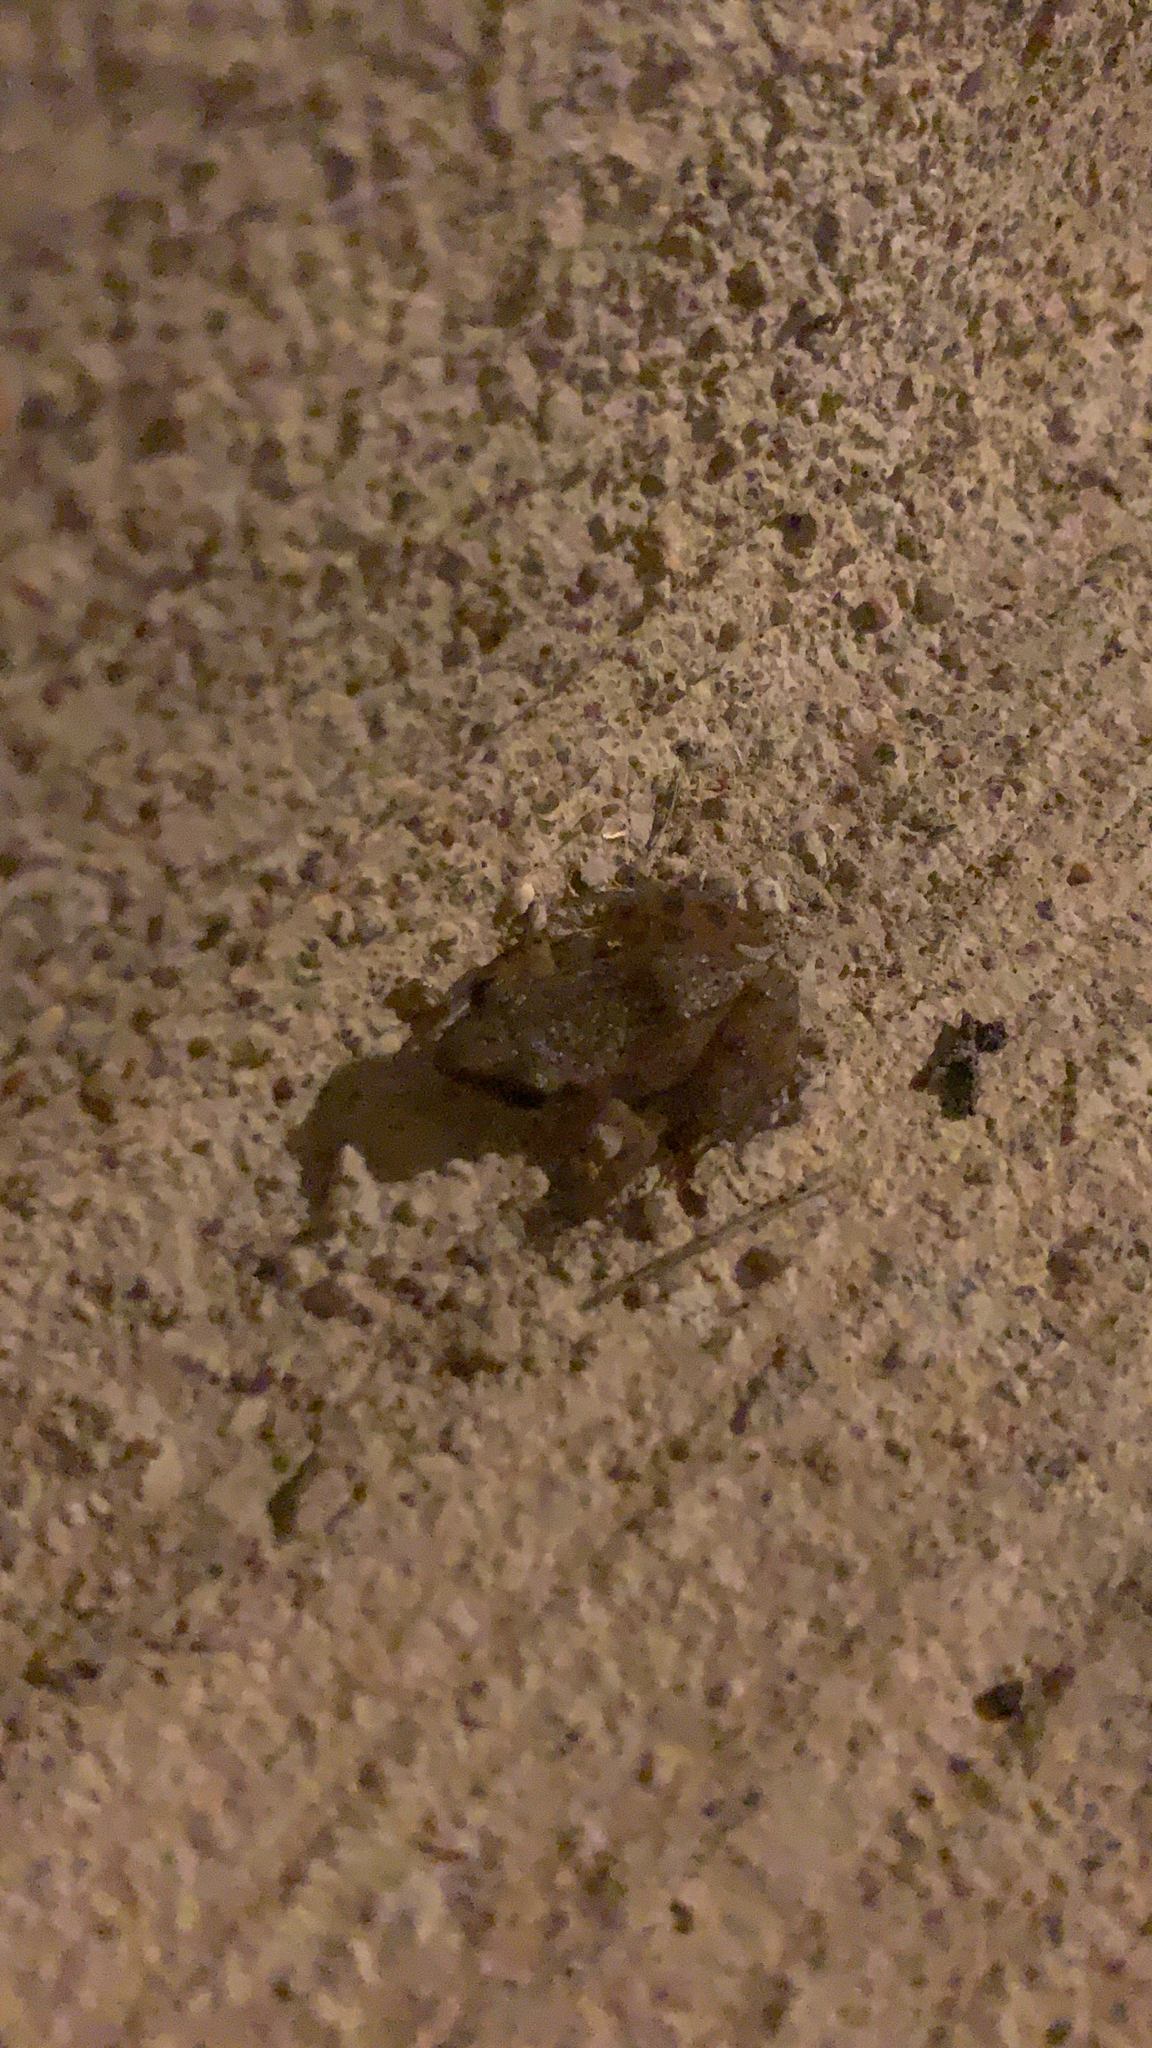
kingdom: Animalia
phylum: Chordata
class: Amphibia
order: Anura
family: Eleutherodactylidae
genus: Eleutherodactylus
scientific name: Eleutherodactylus campi
